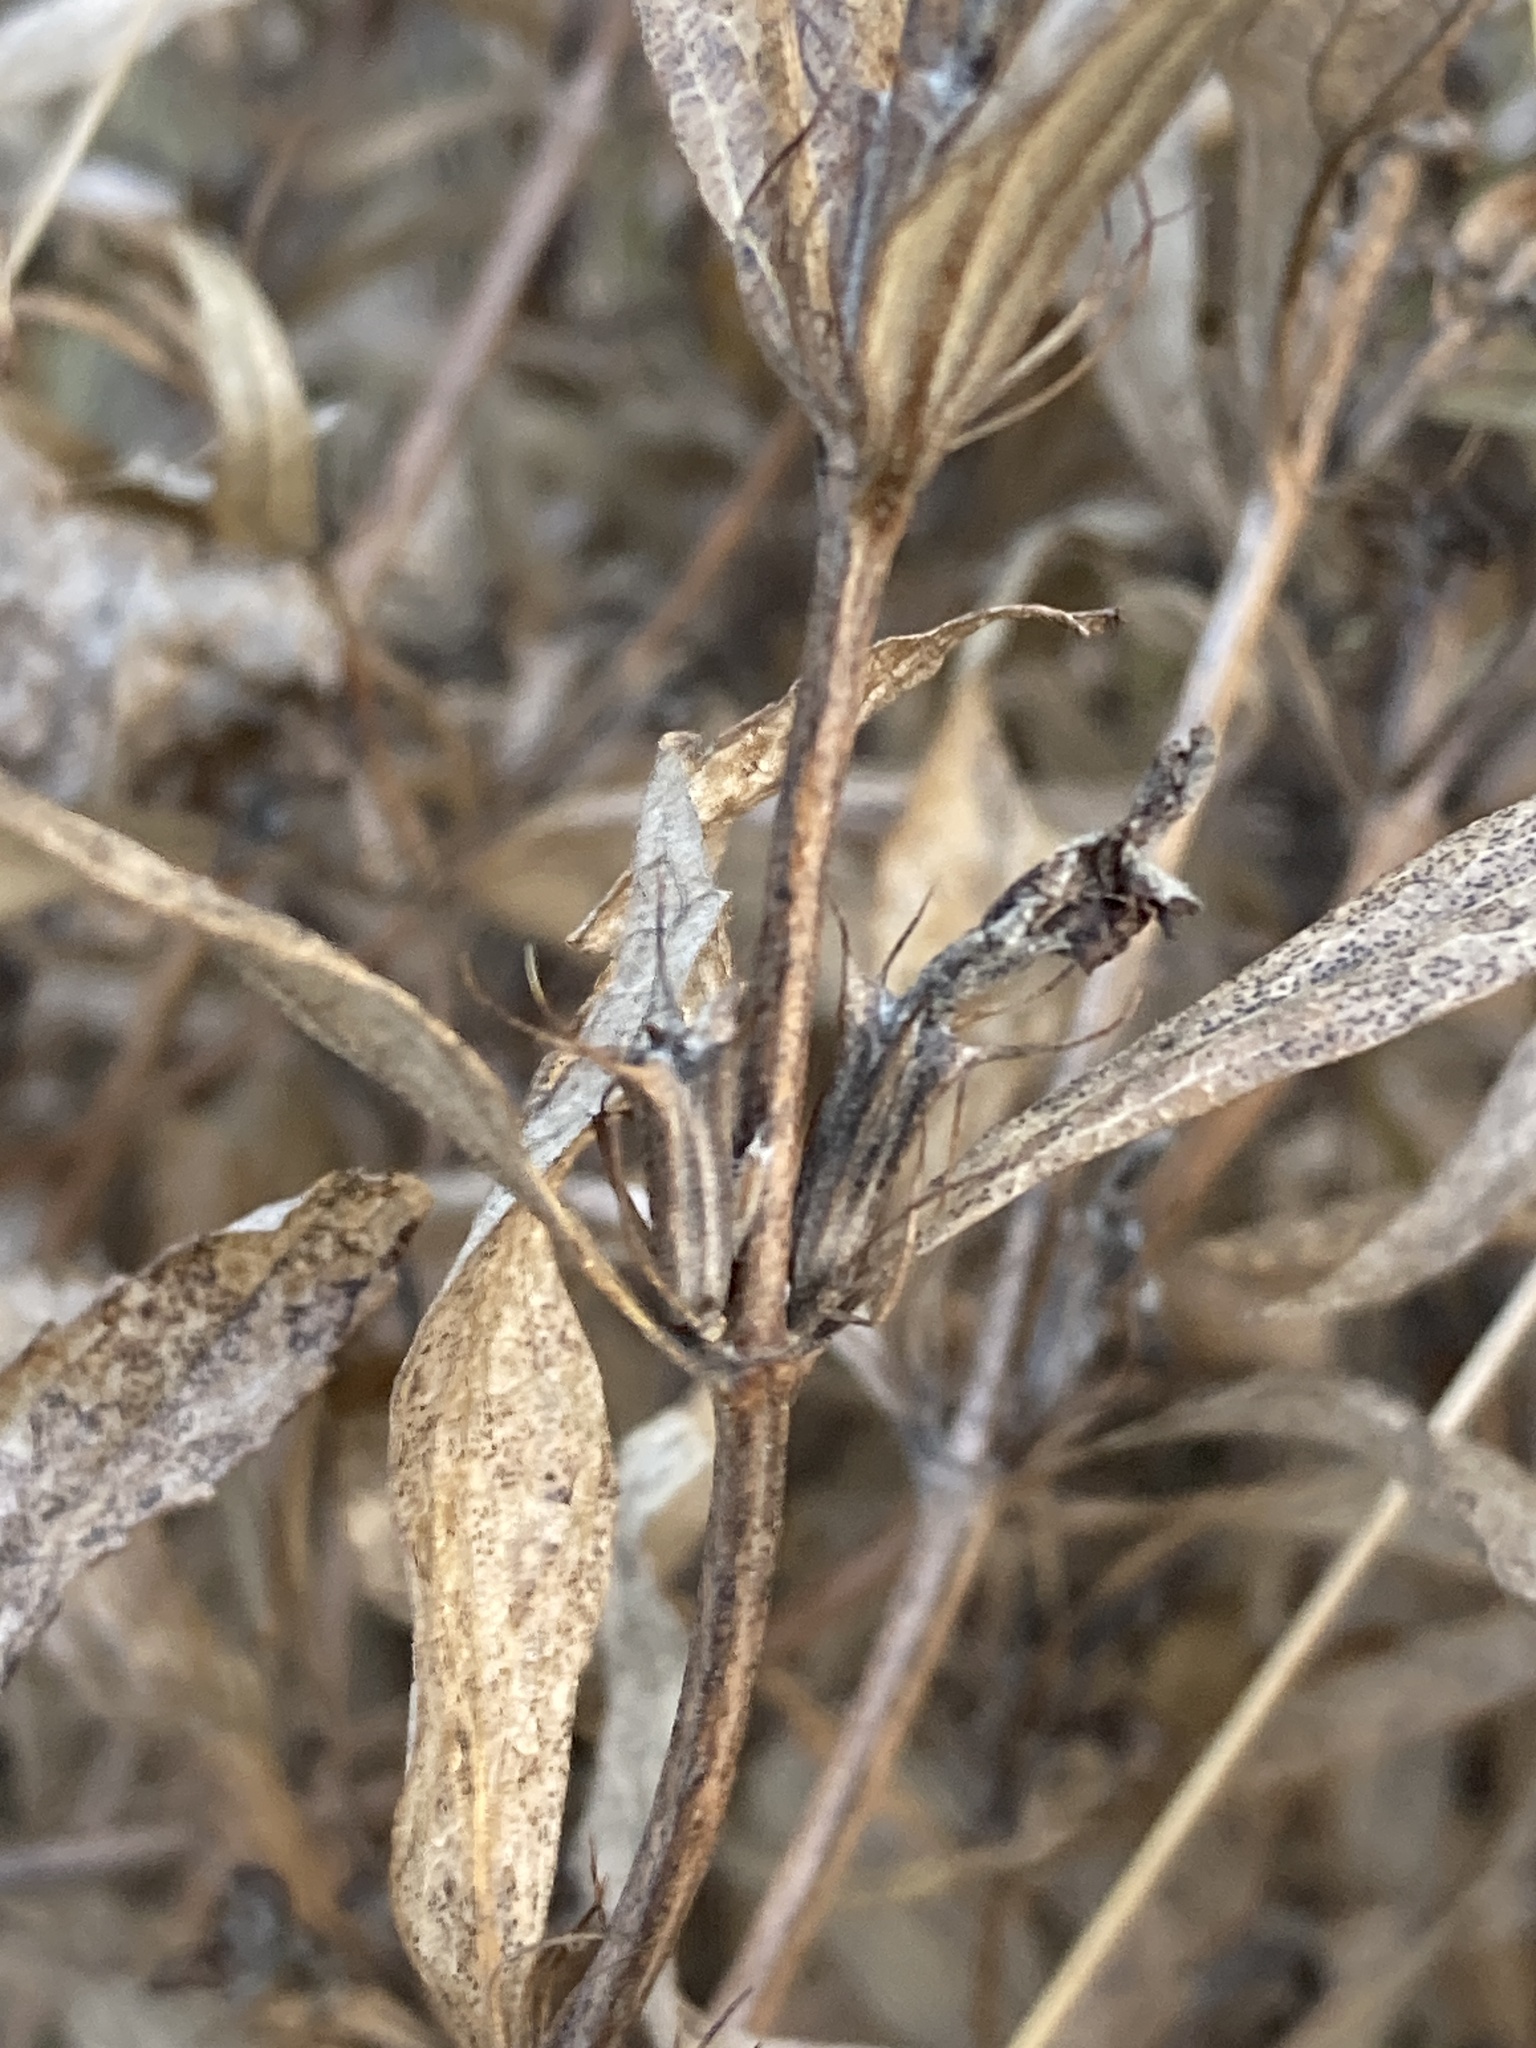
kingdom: Plantae
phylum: Tracheophyta
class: Magnoliopsida
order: Lamiales
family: Lamiaceae
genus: Phlomis
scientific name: Phlomis herba-venti
